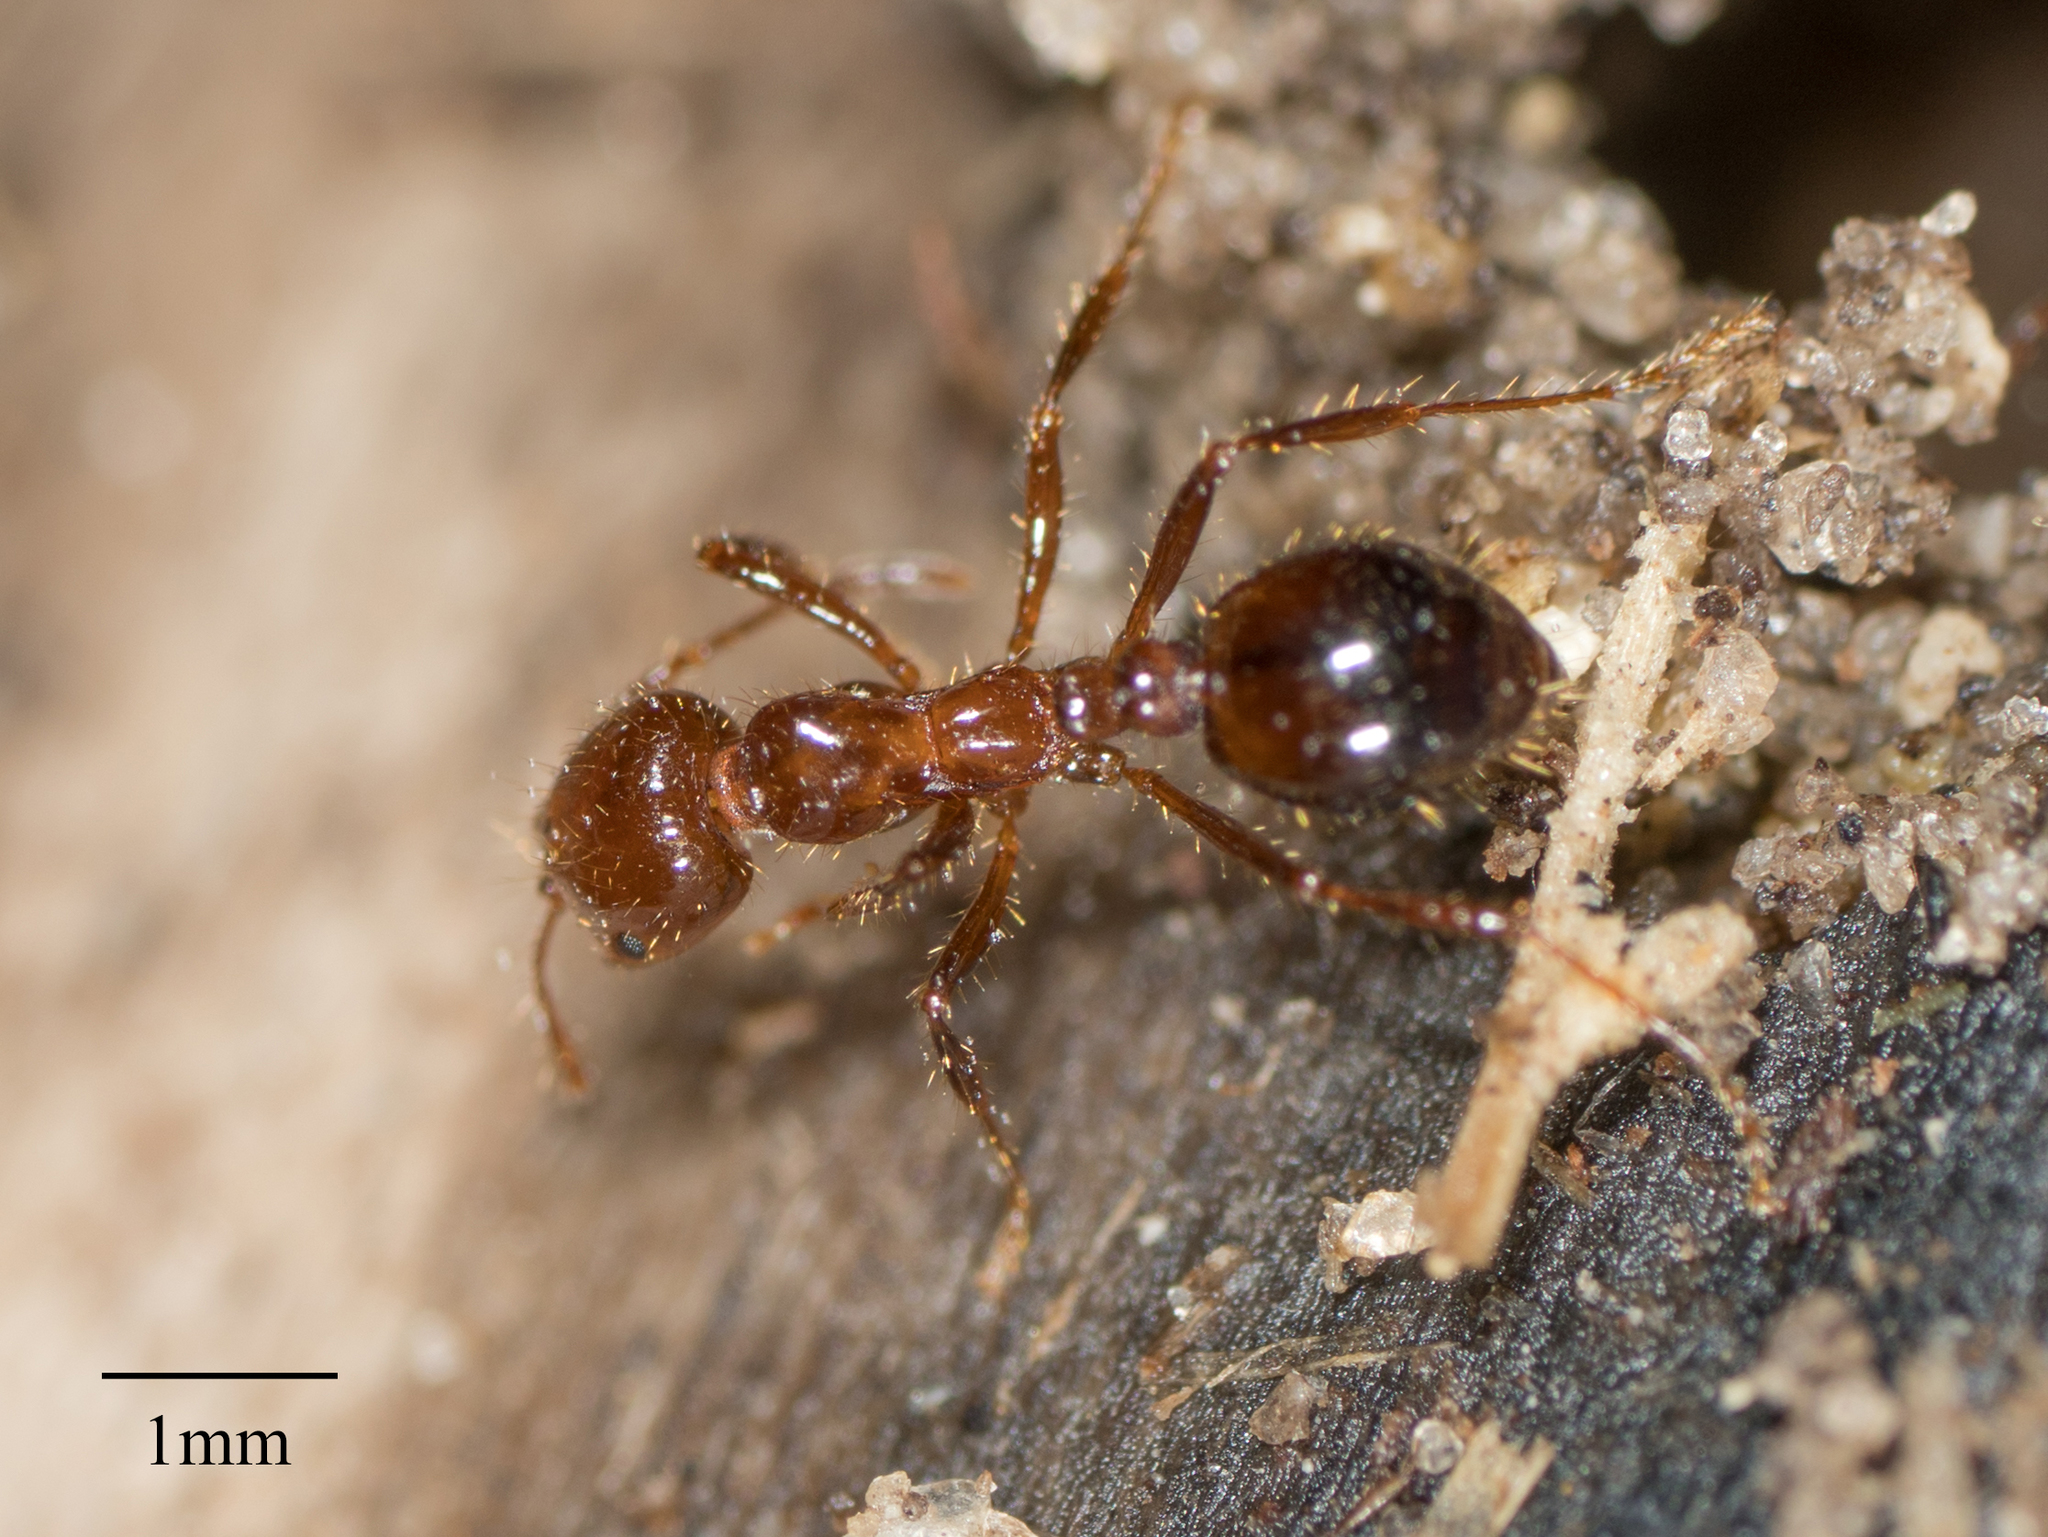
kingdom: Animalia
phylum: Arthropoda
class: Insecta
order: Hymenoptera
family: Formicidae
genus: Solenopsis
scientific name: Solenopsis invicta
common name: Red imported fire ant
